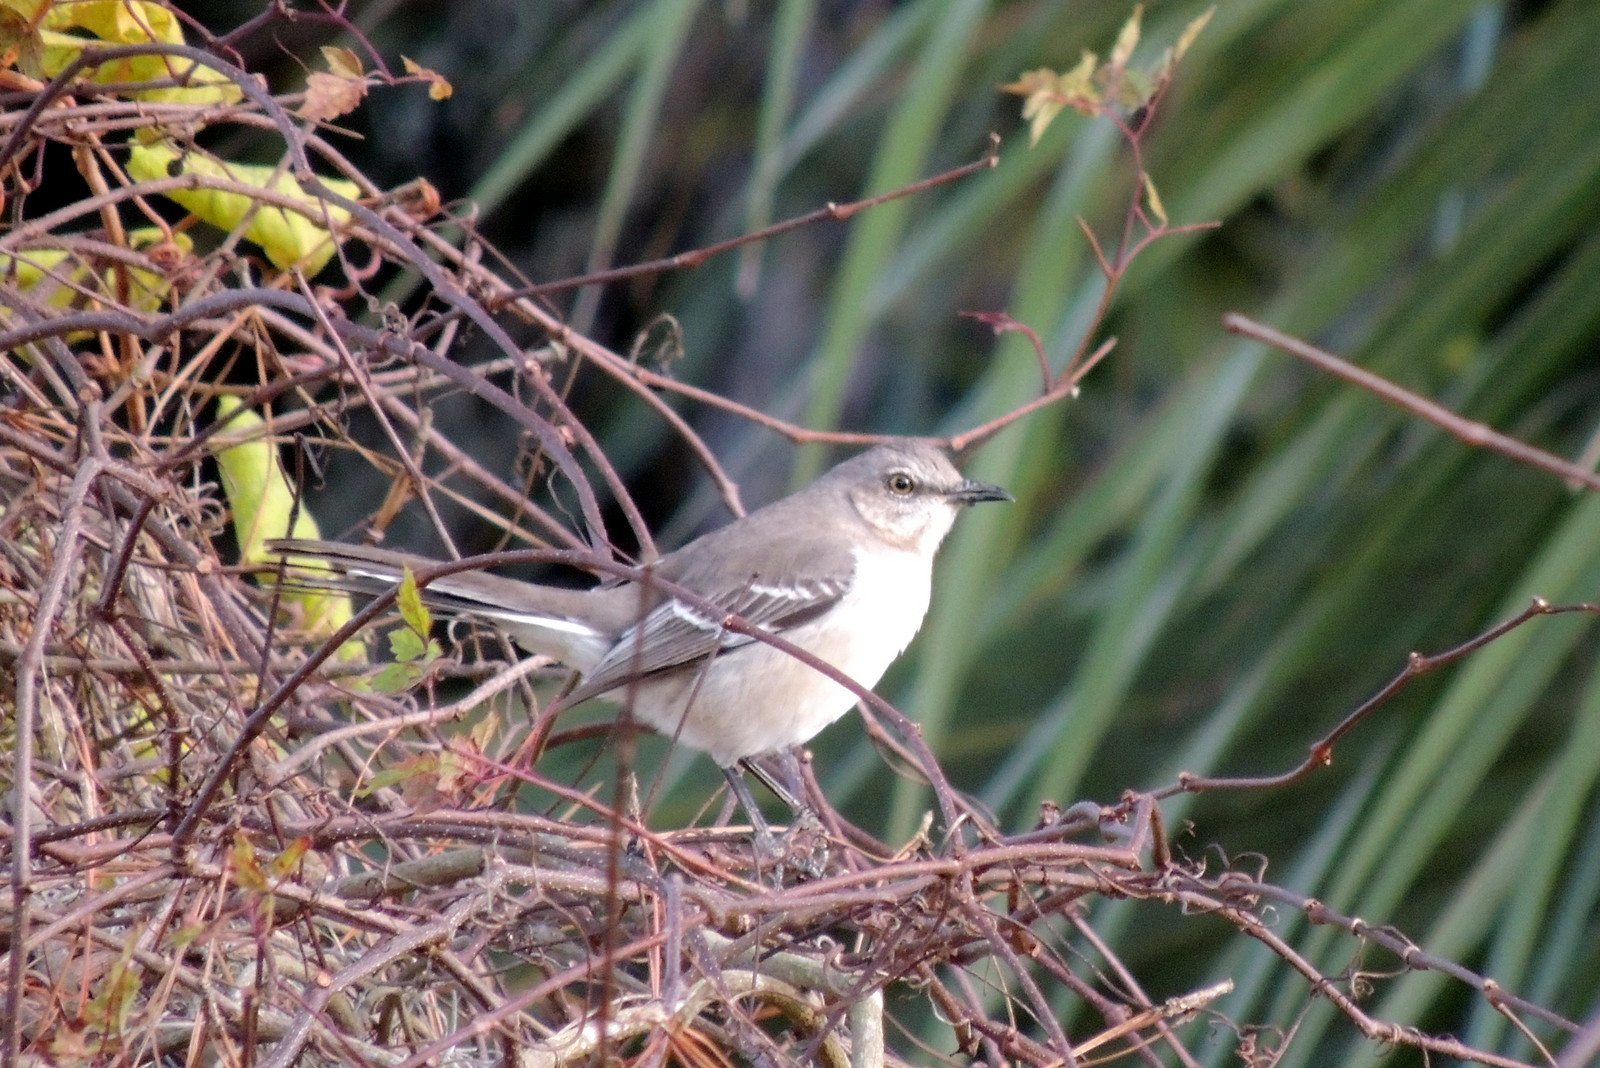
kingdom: Animalia
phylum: Chordata
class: Aves
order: Passeriformes
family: Mimidae
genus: Mimus
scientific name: Mimus polyglottos
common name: Northern mockingbird
